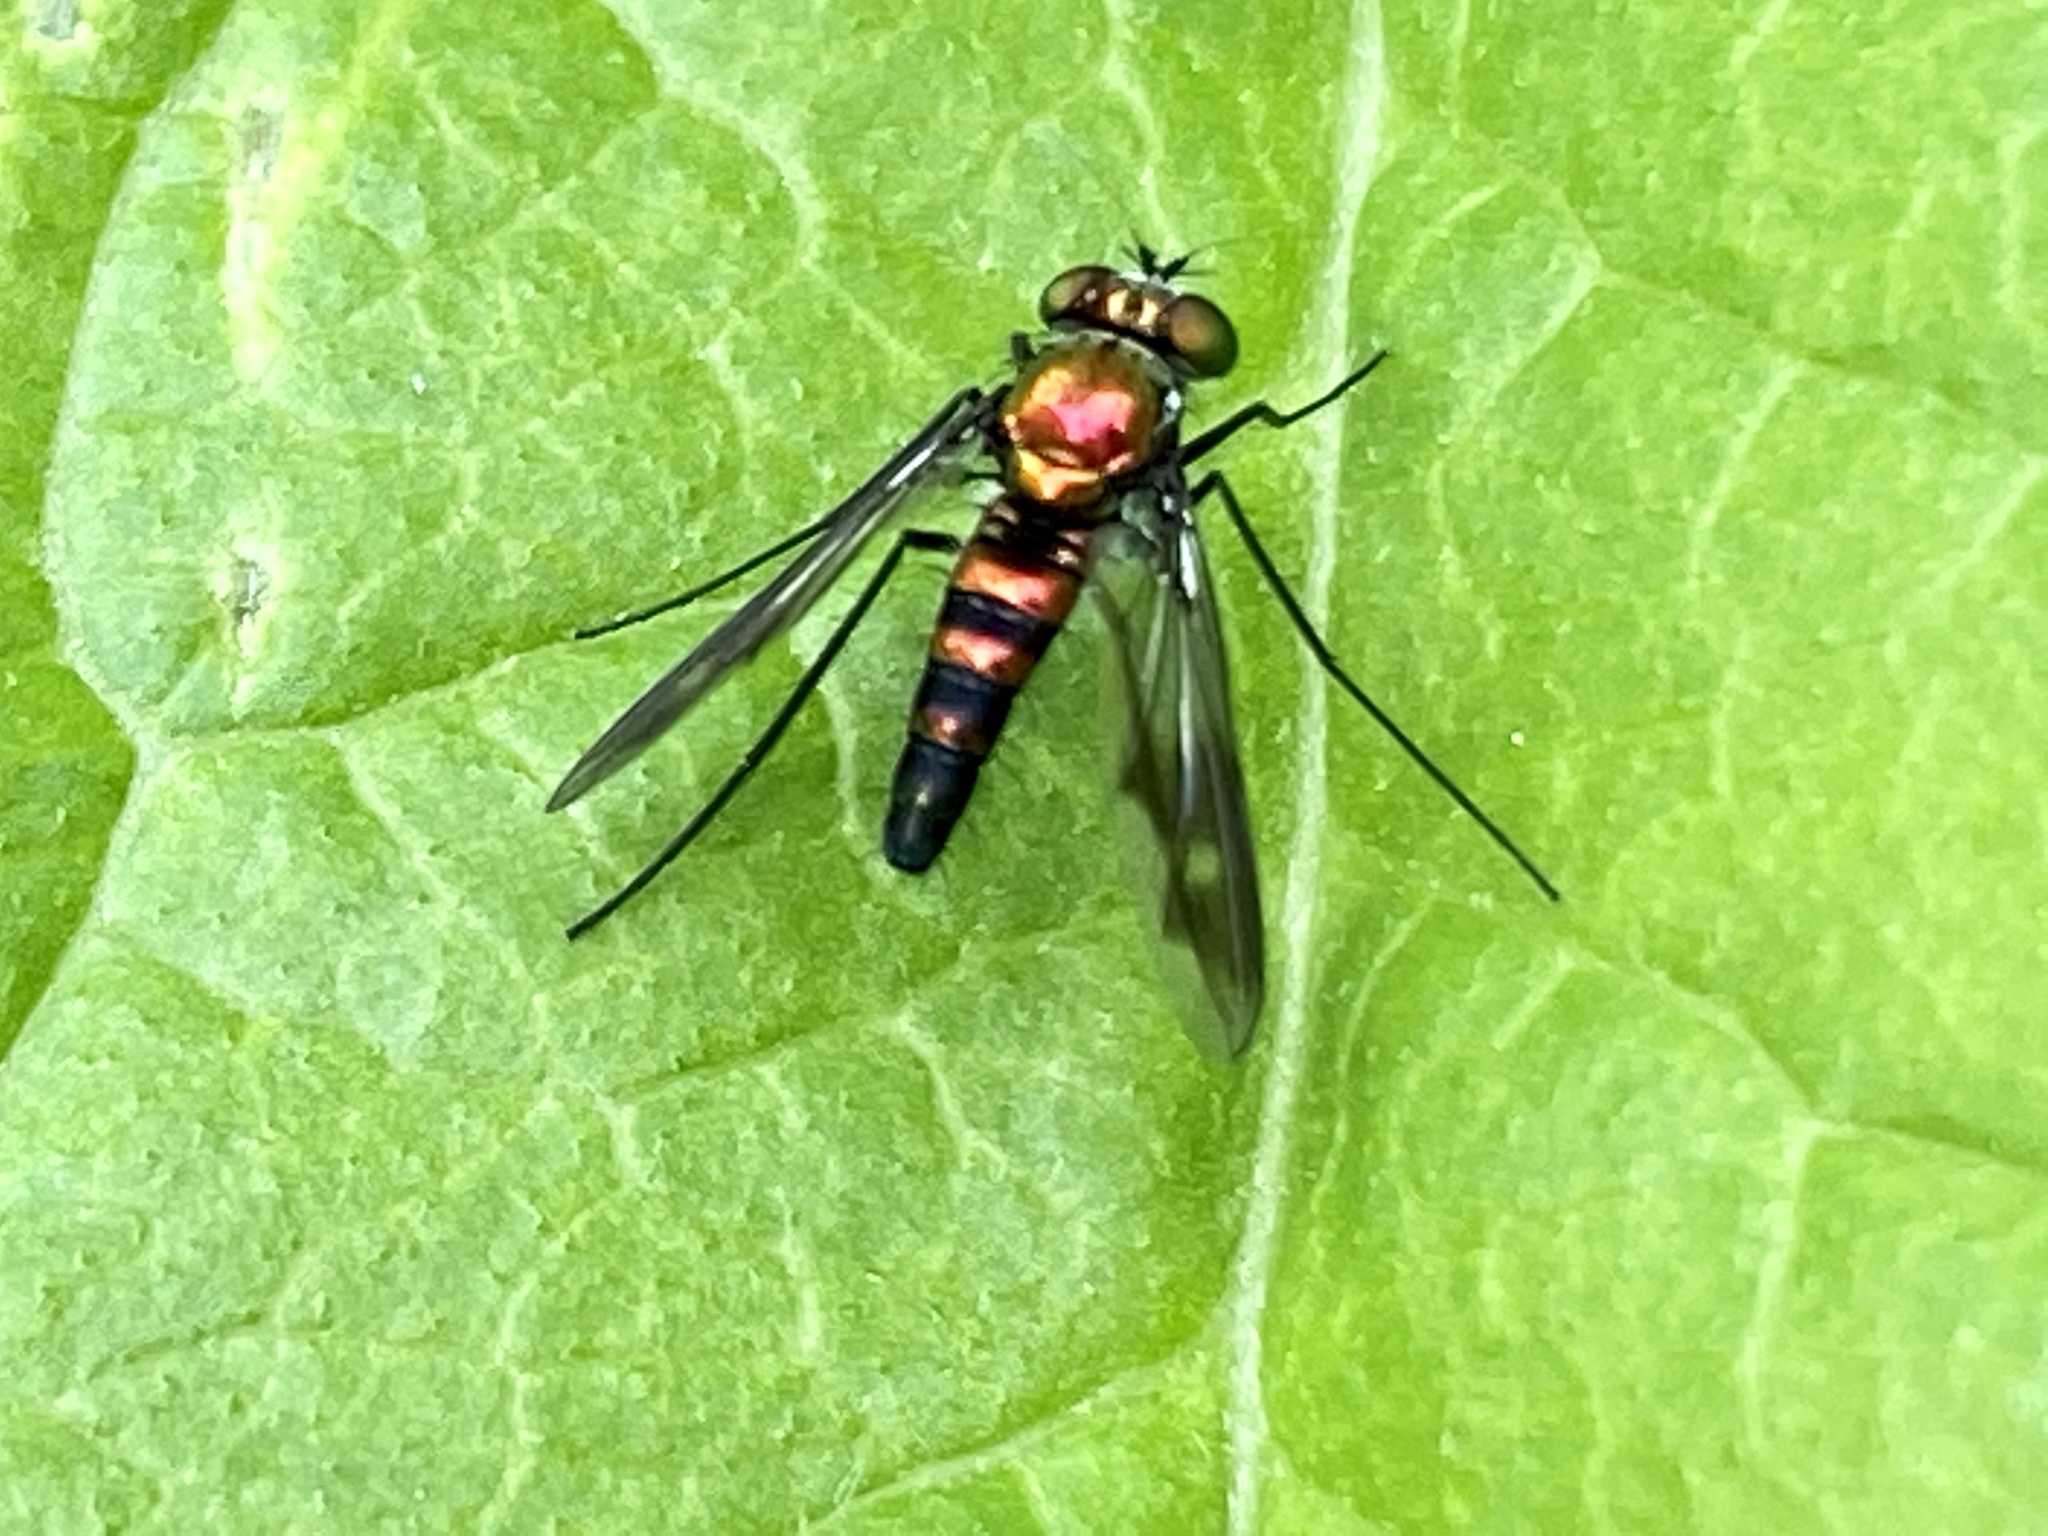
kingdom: Animalia
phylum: Arthropoda
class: Insecta
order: Diptera
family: Dolichopodidae
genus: Condylostylus
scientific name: Condylostylus patibulatus
